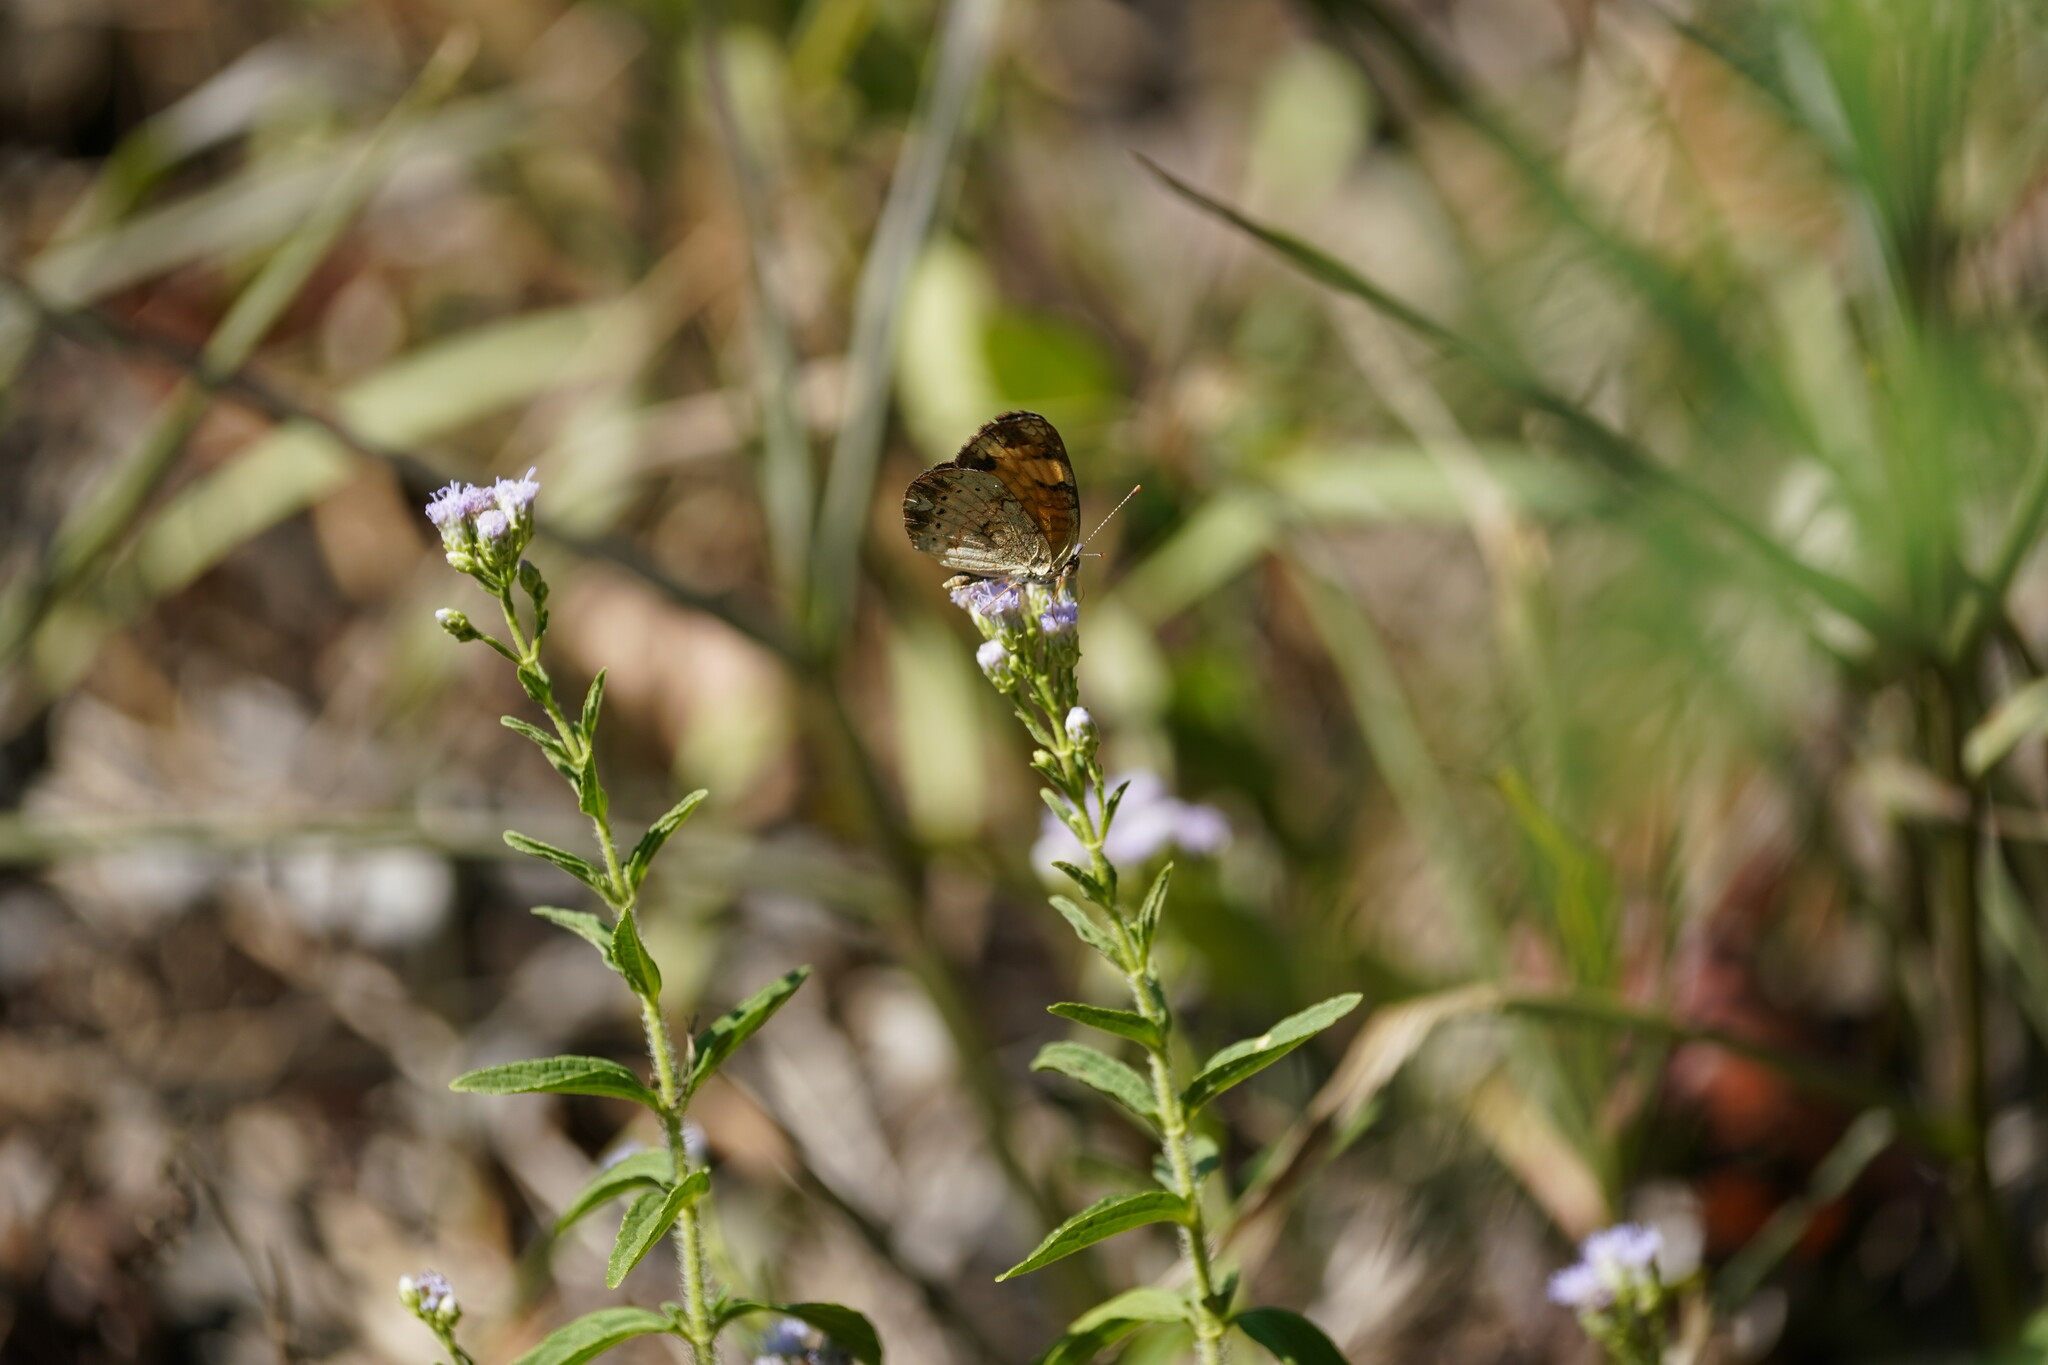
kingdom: Animalia
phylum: Arthropoda
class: Insecta
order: Lepidoptera
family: Nymphalidae
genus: Phyciodes
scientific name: Phyciodes tharos
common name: Pearl crescent
